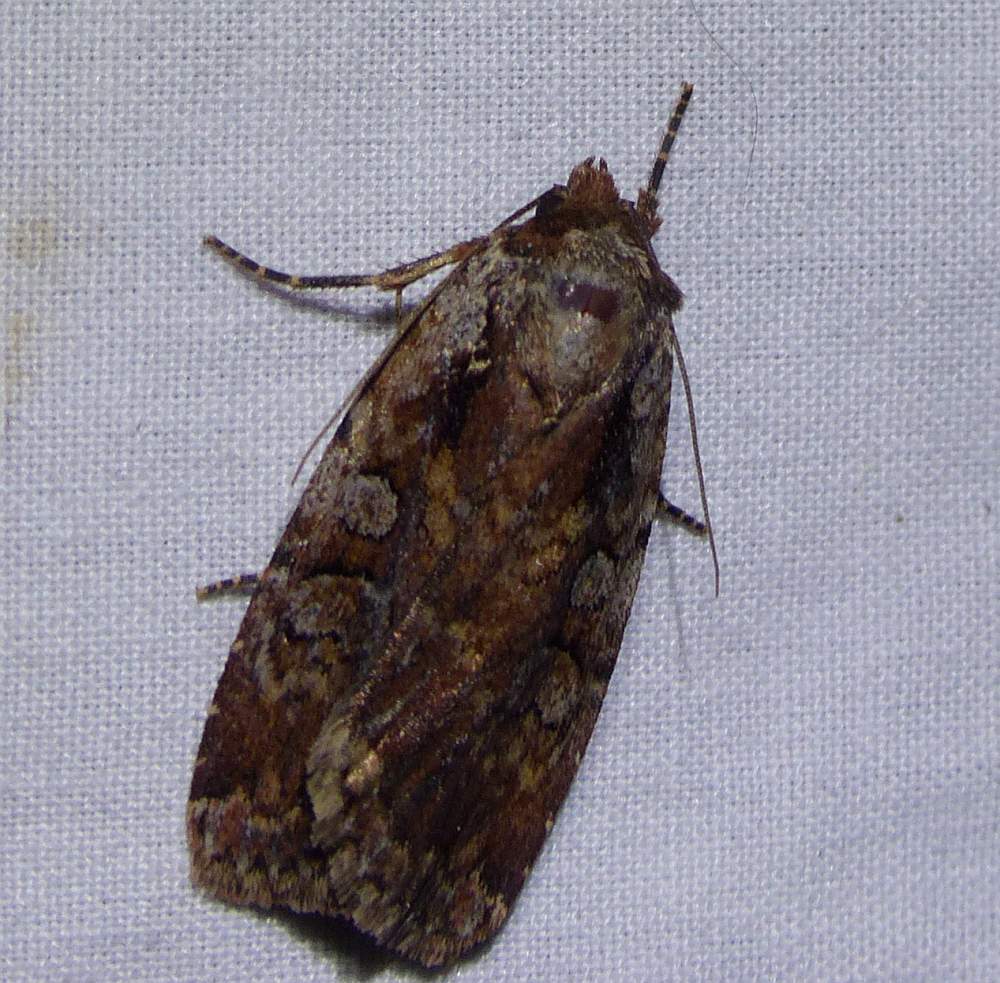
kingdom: Animalia
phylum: Arthropoda
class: Insecta
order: Lepidoptera
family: Noctuidae
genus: Eueretagrotis
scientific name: Eueretagrotis attentus
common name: Attentive dart
